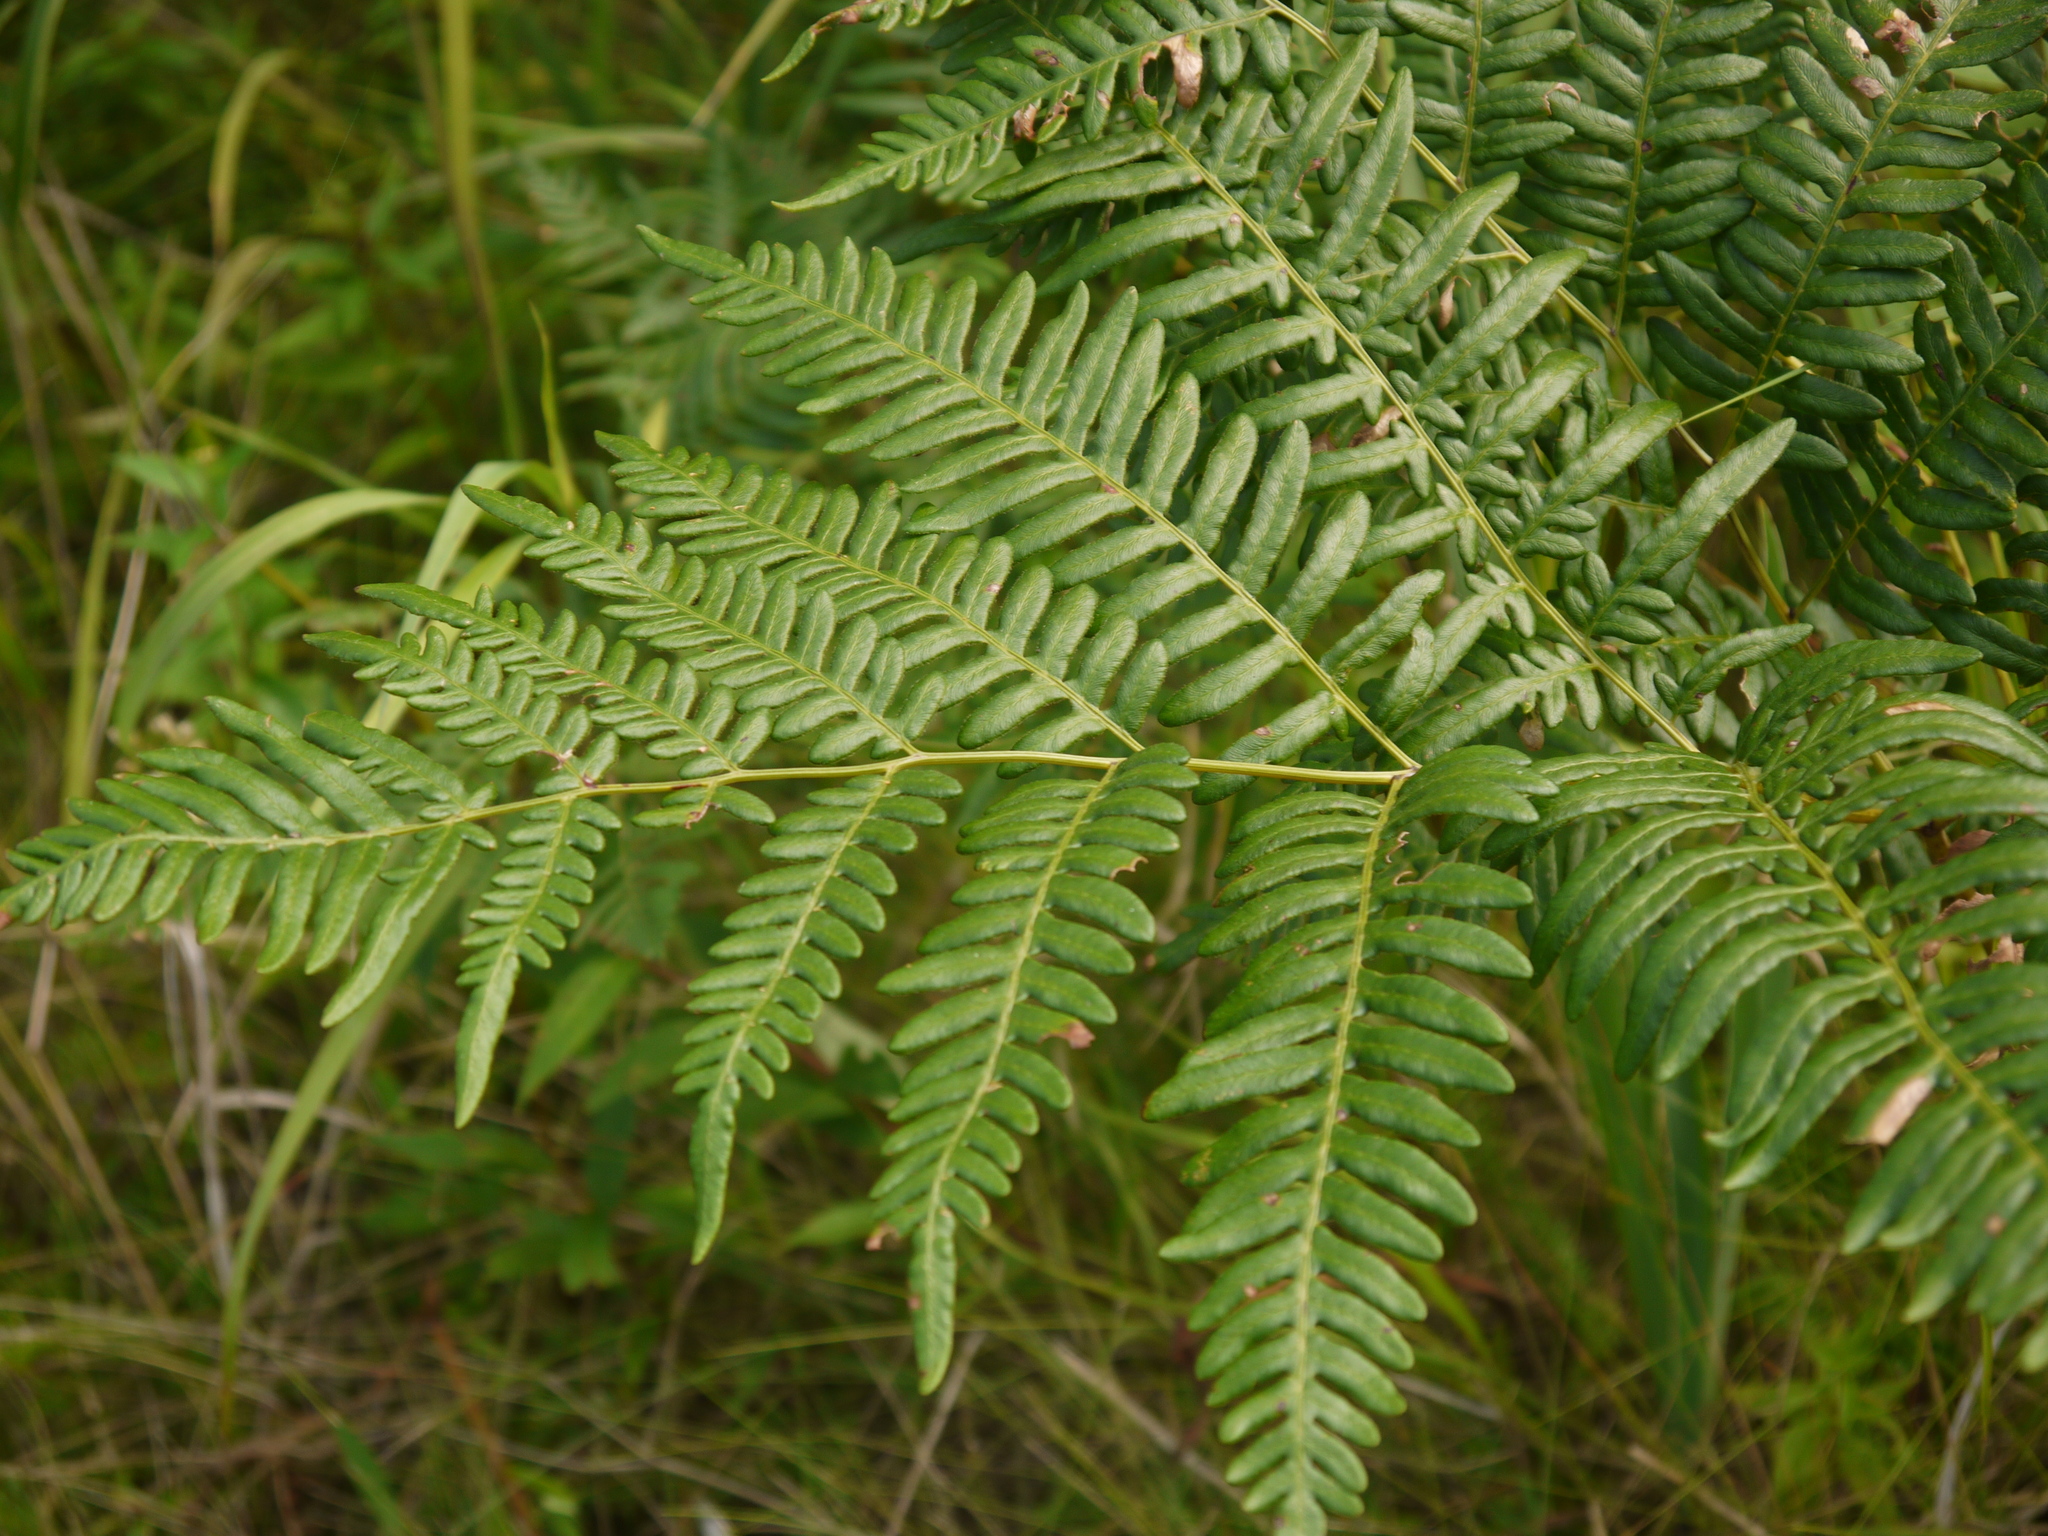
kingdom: Plantae
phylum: Tracheophyta
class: Polypodiopsida
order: Polypodiales
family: Dennstaedtiaceae
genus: Pteridium
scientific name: Pteridium aquilinum
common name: Bracken
